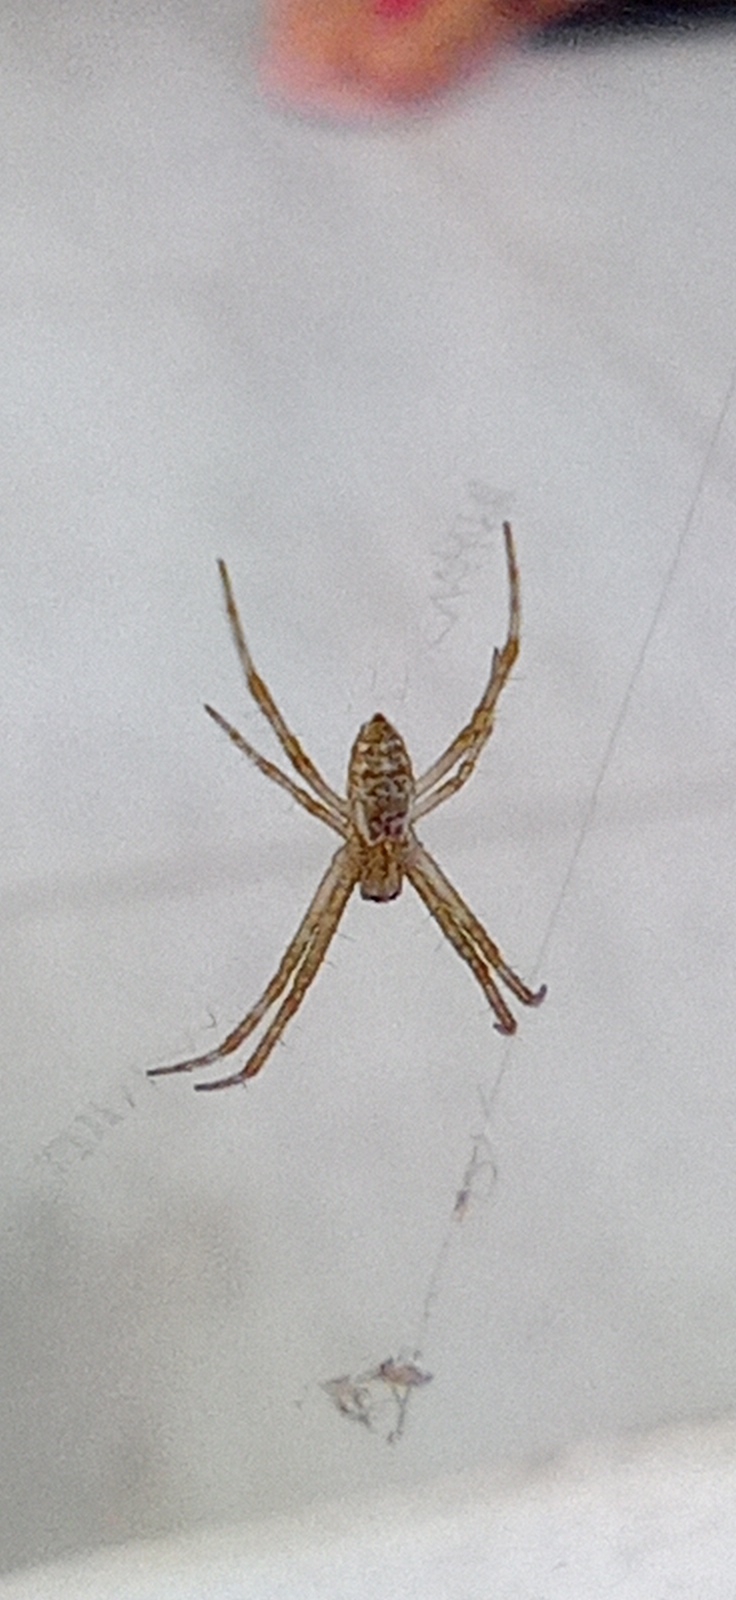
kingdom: Animalia
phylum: Arthropoda
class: Arachnida
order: Araneae
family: Araneidae
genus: Argiope
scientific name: Argiope argentata
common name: Orb weavers
